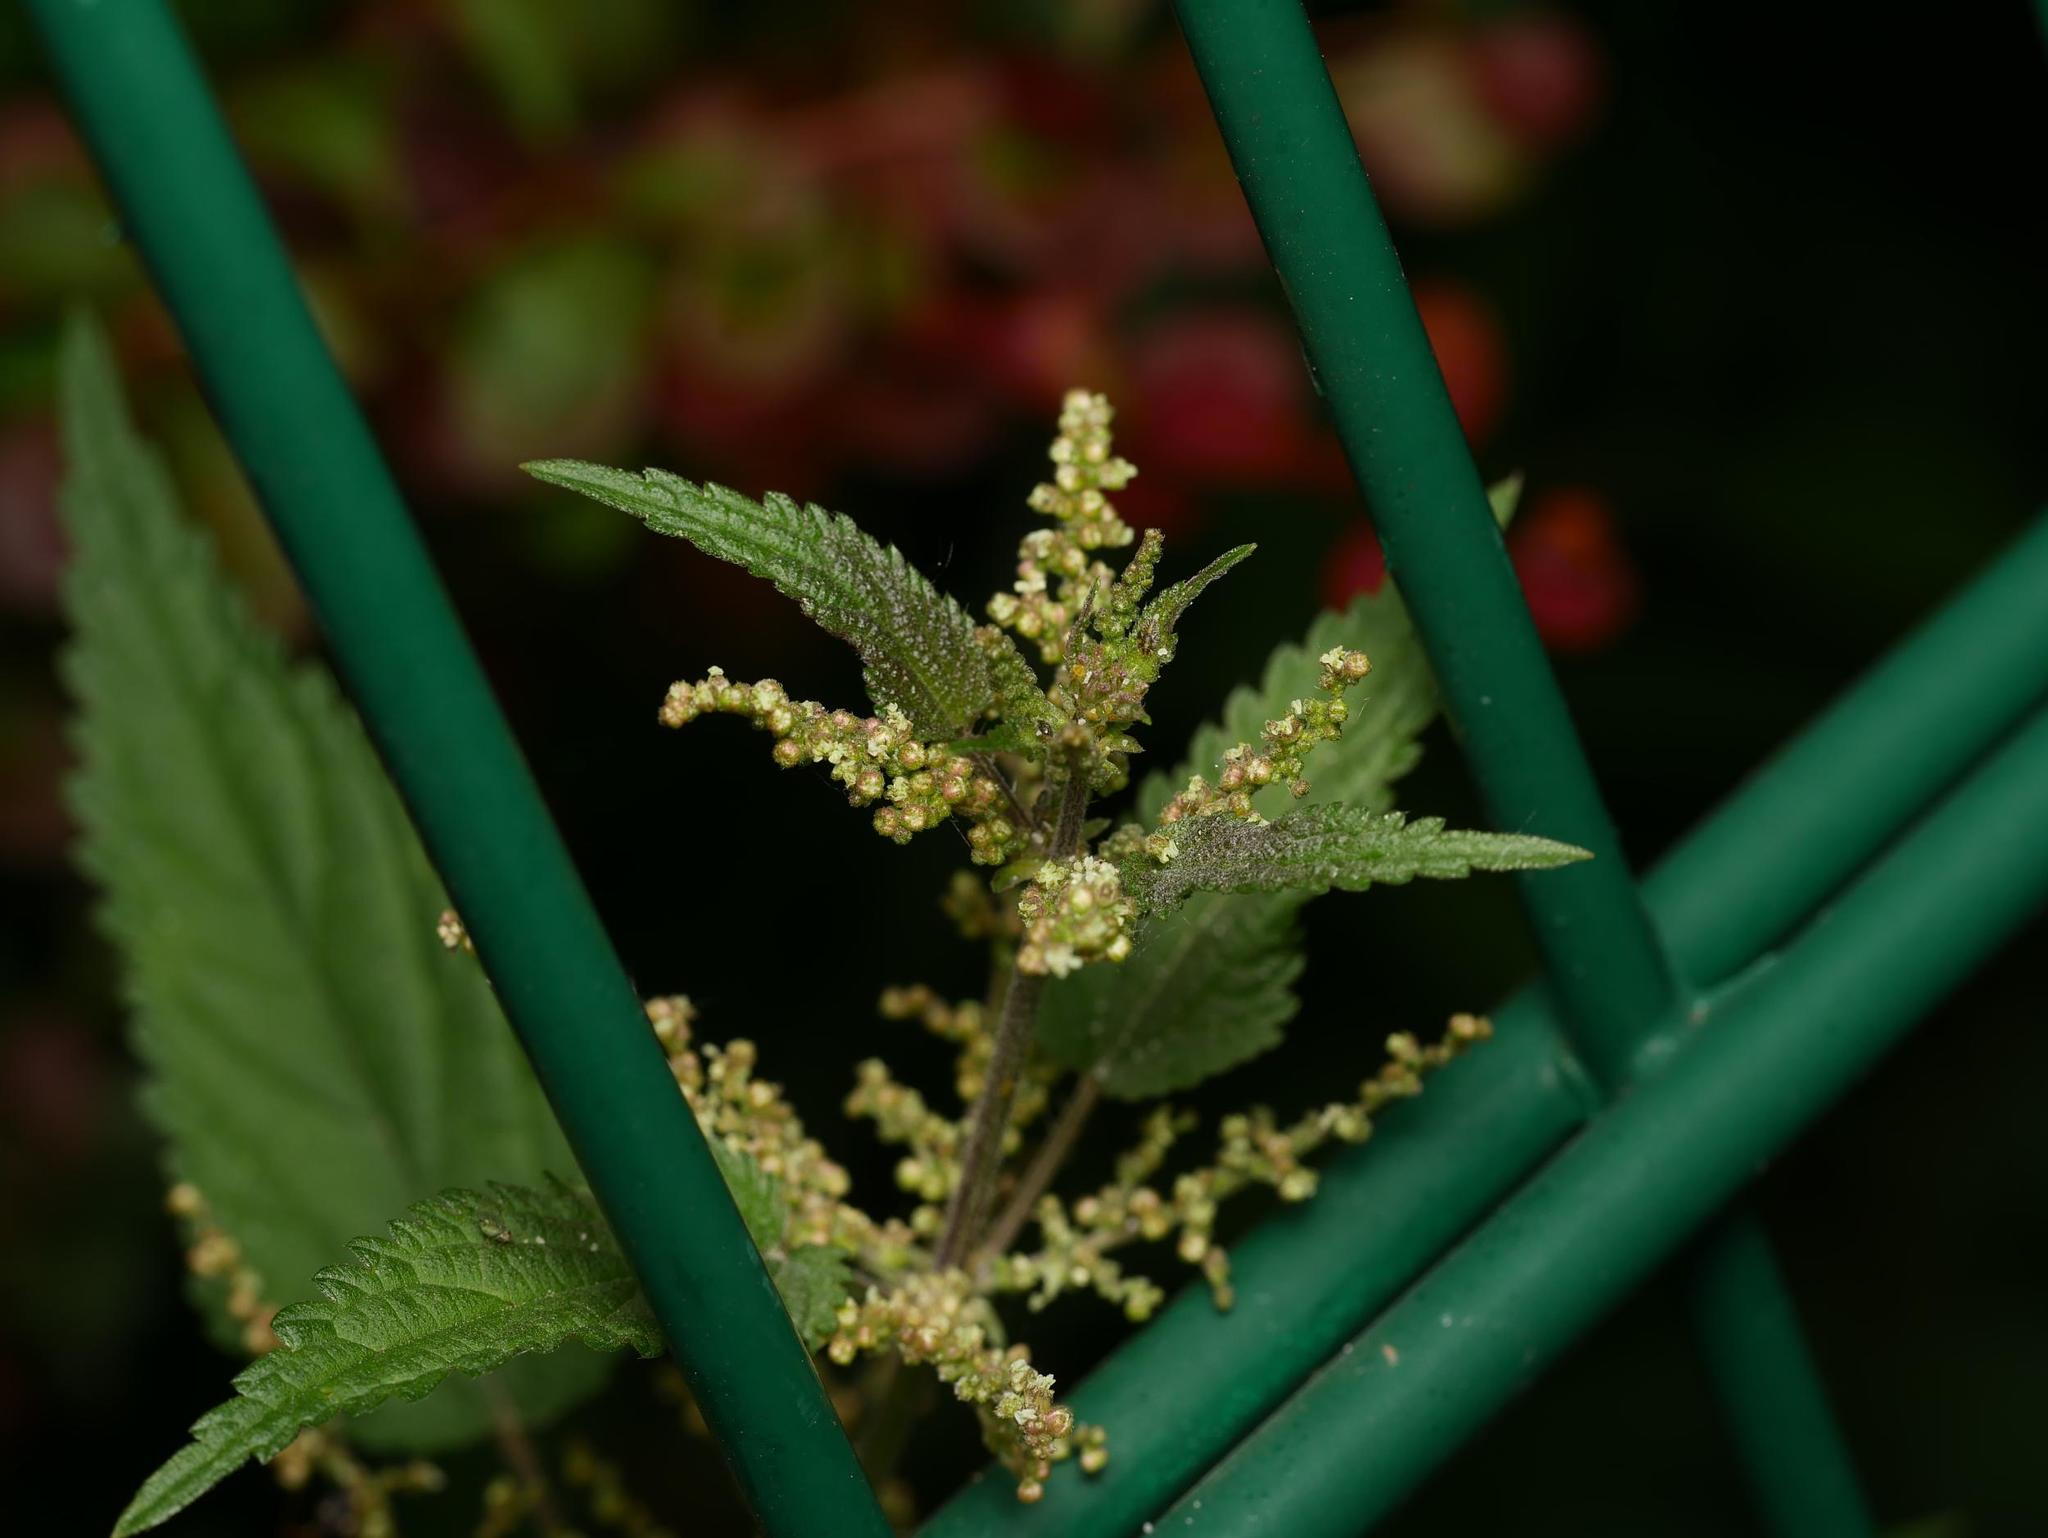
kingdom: Plantae
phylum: Tracheophyta
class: Magnoliopsida
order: Rosales
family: Urticaceae
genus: Urtica
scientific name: Urtica dioica
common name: Common nettle
